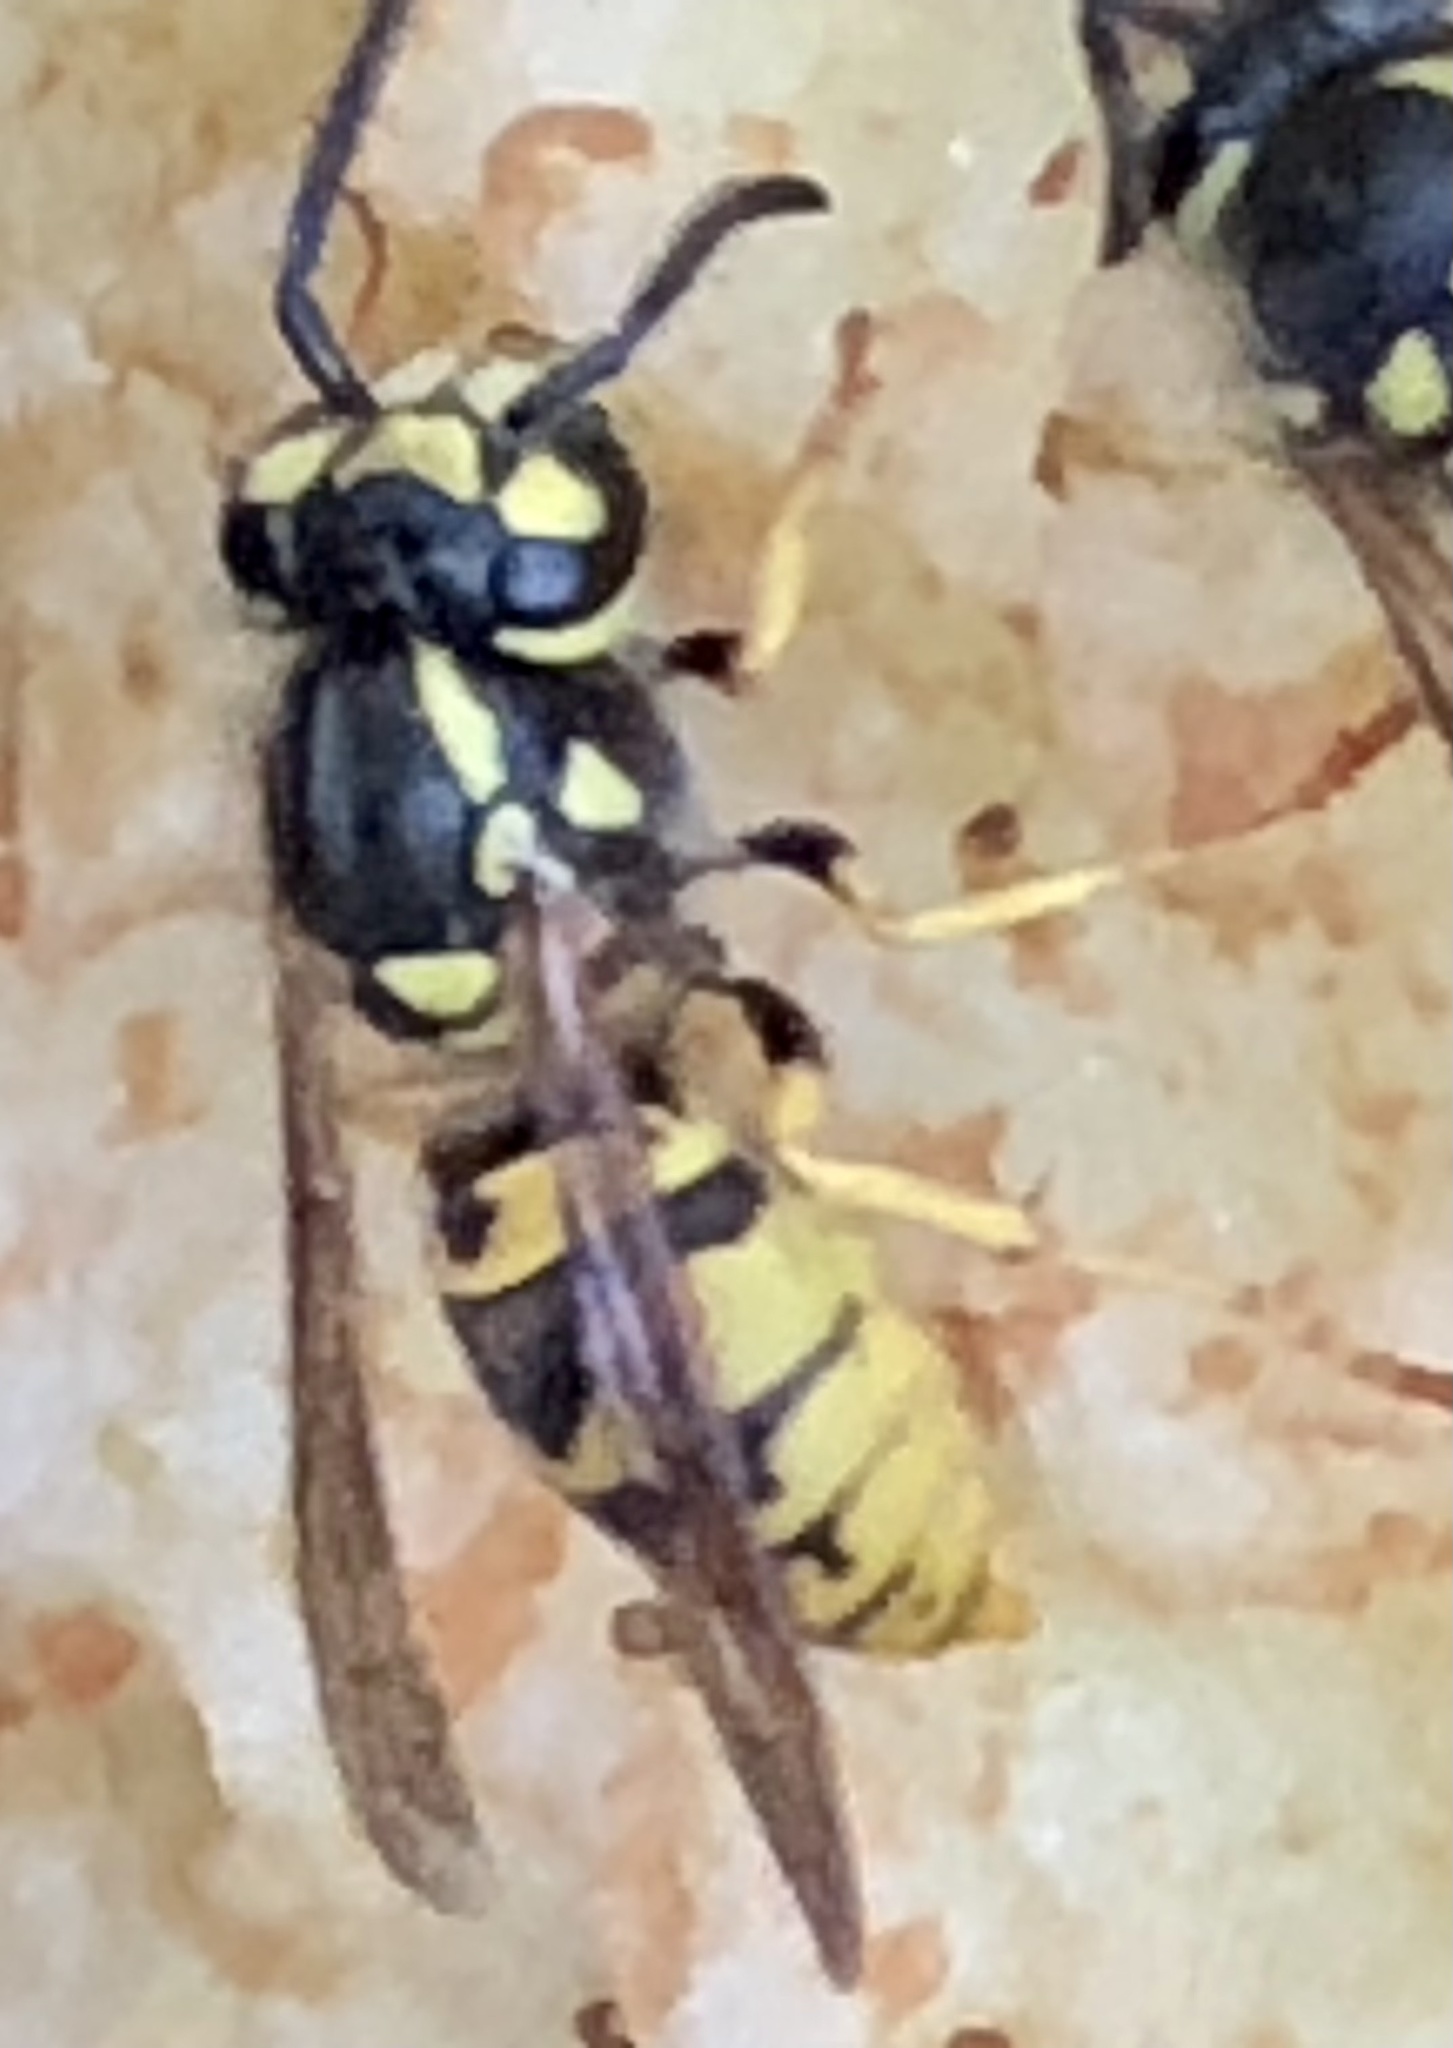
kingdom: Animalia
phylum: Arthropoda
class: Insecta
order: Hymenoptera
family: Vespidae
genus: Vespula
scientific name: Vespula germanica
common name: German wasp
